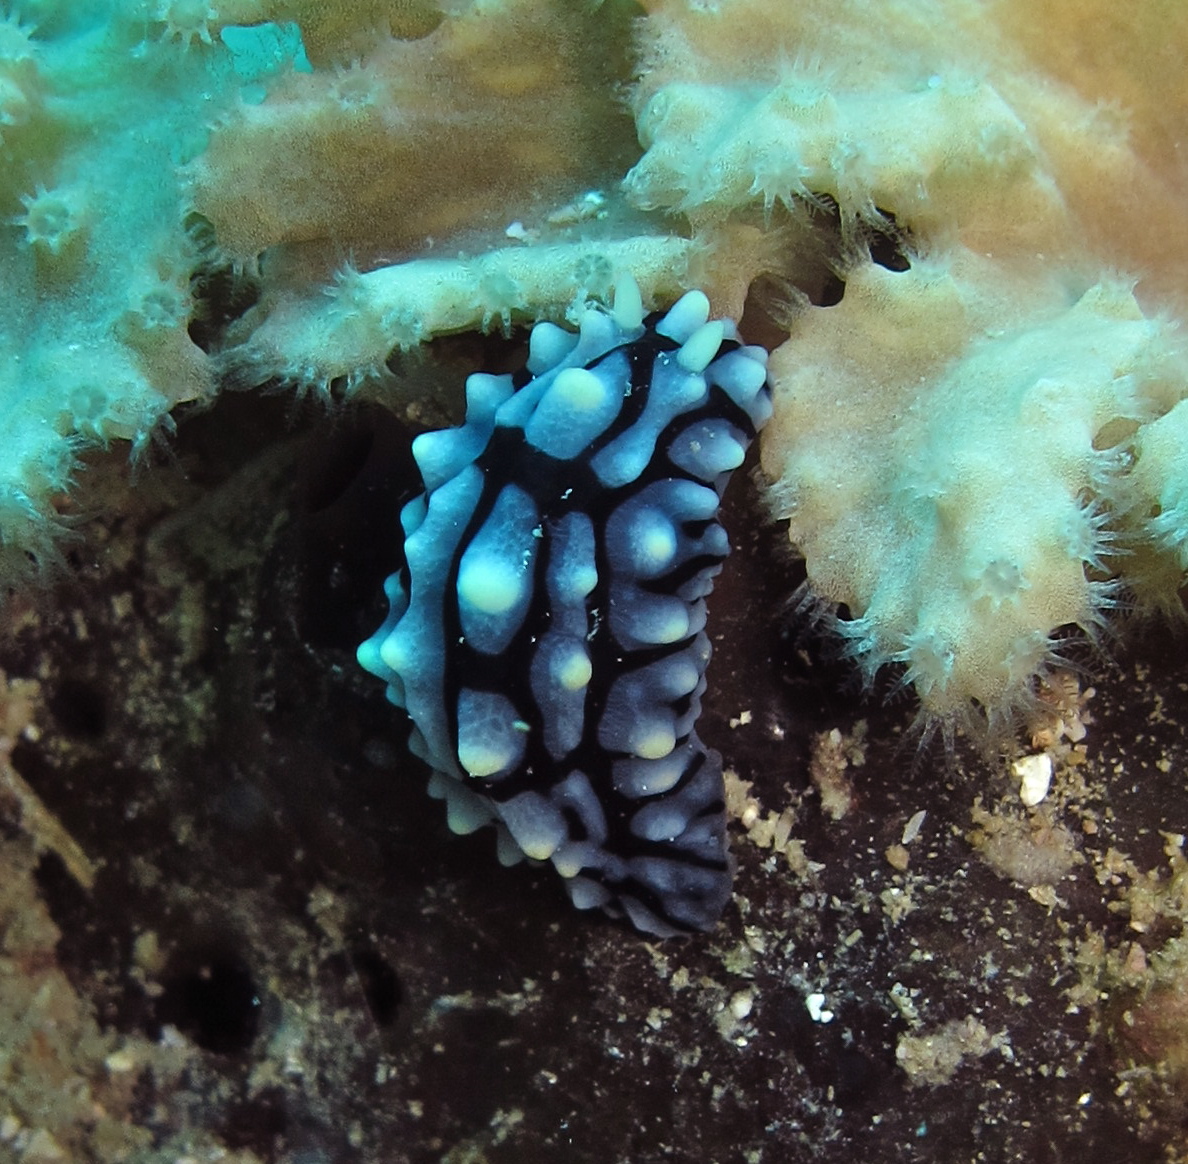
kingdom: Animalia
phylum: Mollusca
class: Gastropoda
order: Nudibranchia
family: Phyllidiidae
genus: Phyllidia
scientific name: Phyllidia varicosa
